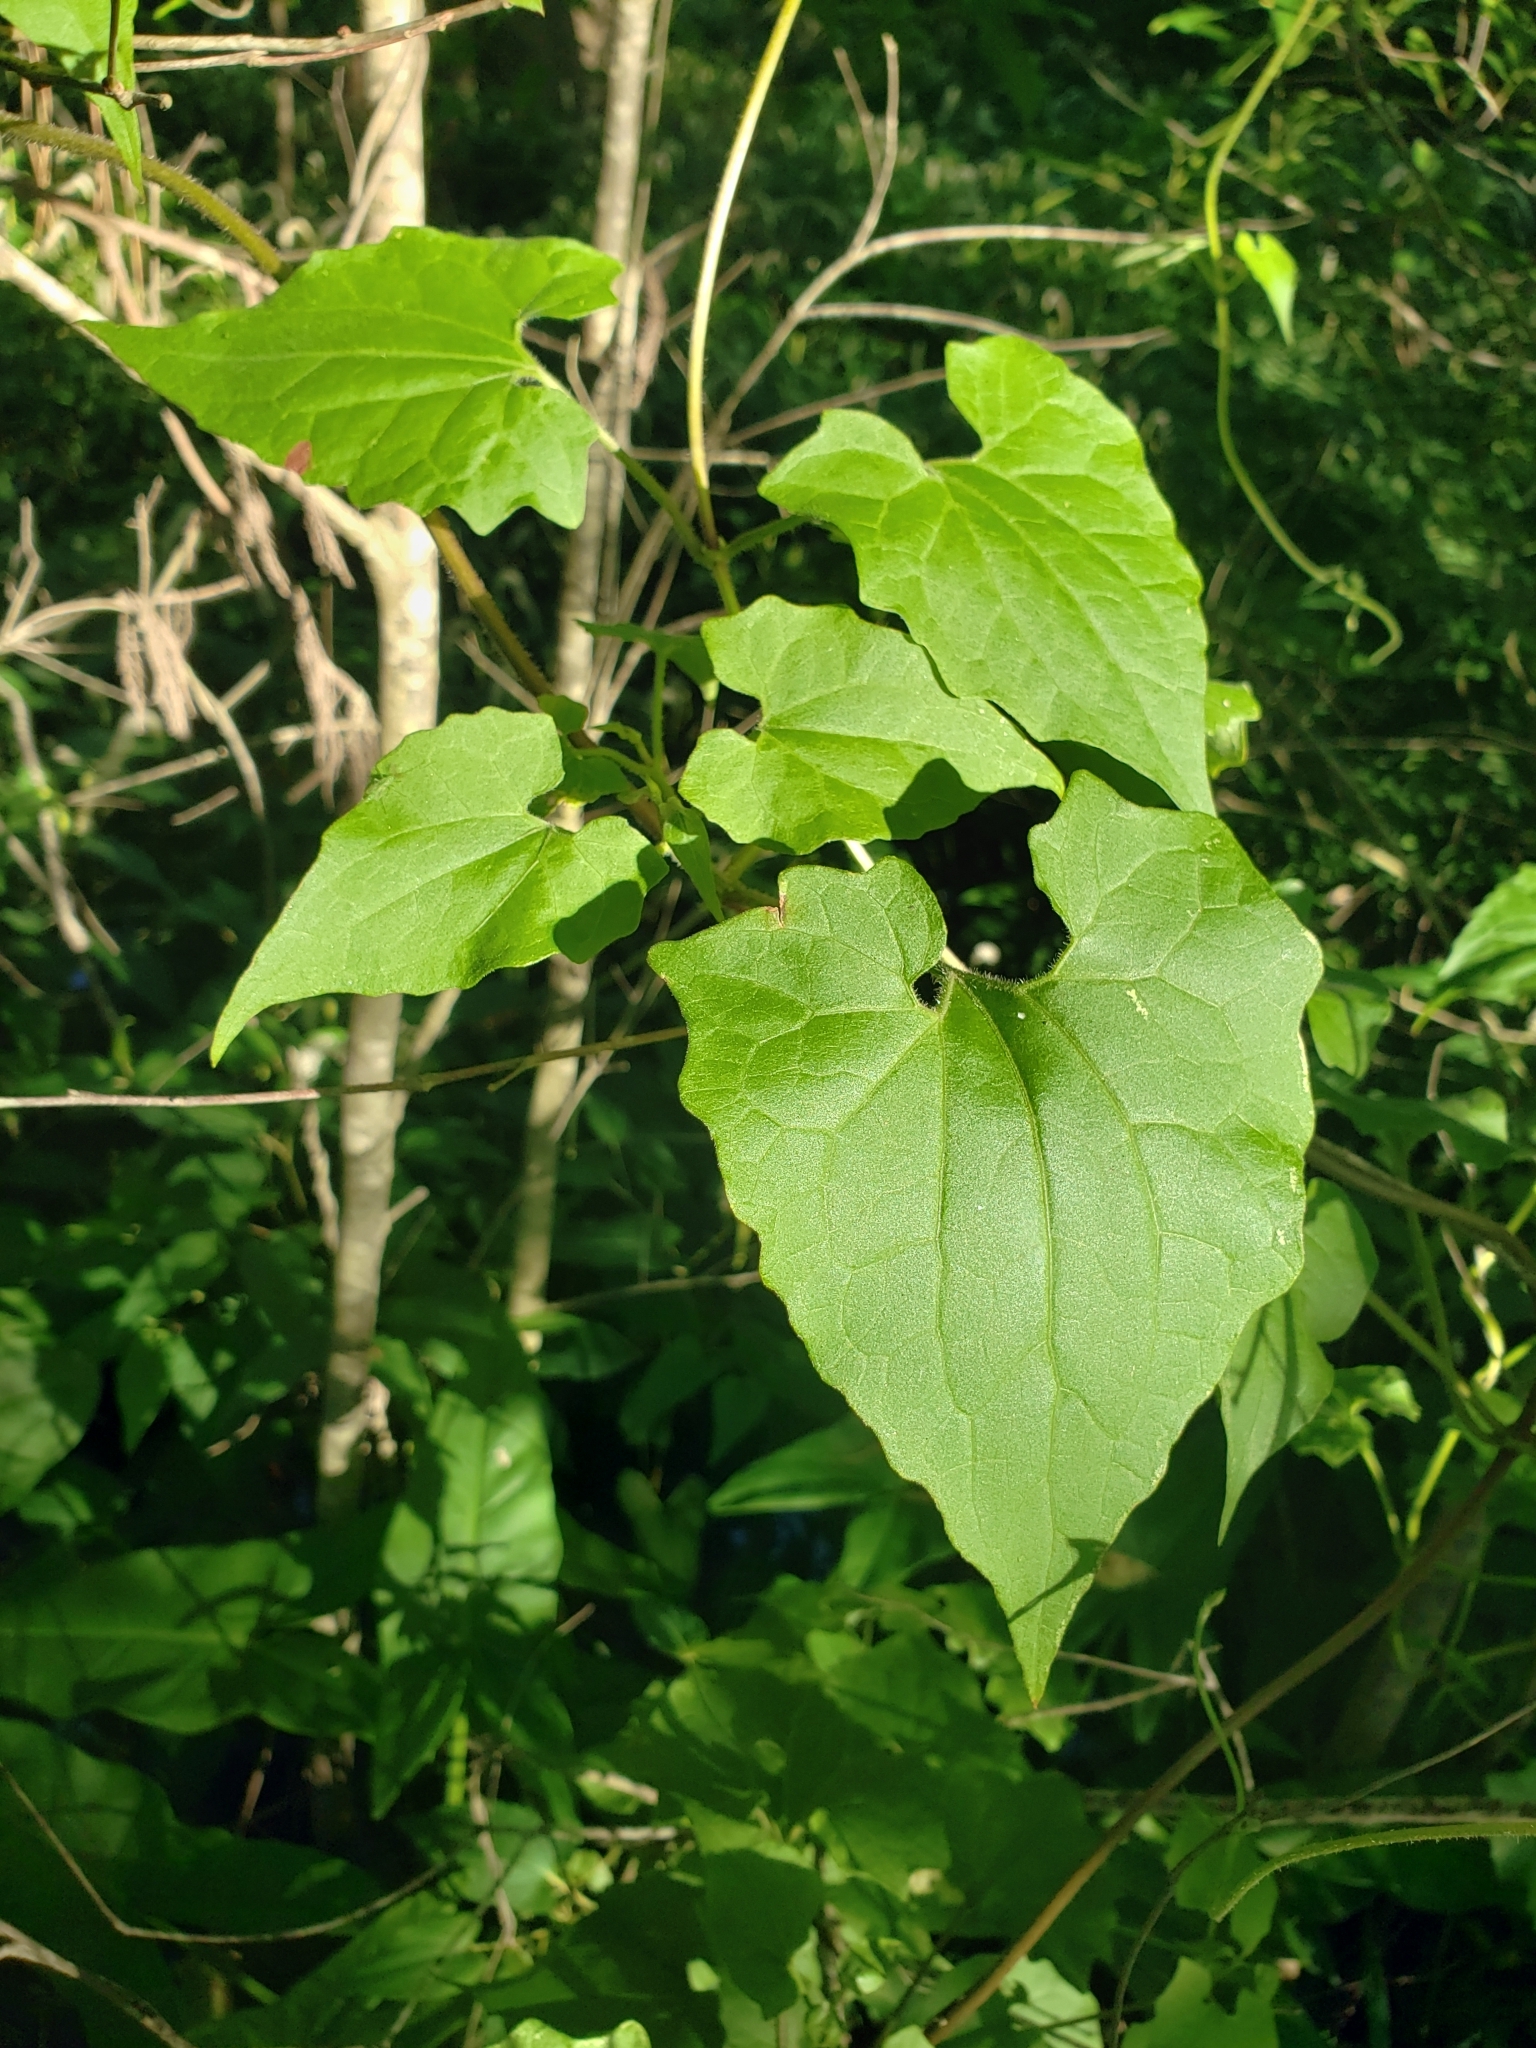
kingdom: Plantae
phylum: Tracheophyta
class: Magnoliopsida
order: Asterales
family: Asteraceae
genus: Mikania
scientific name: Mikania scandens
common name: Climbing hempvine
